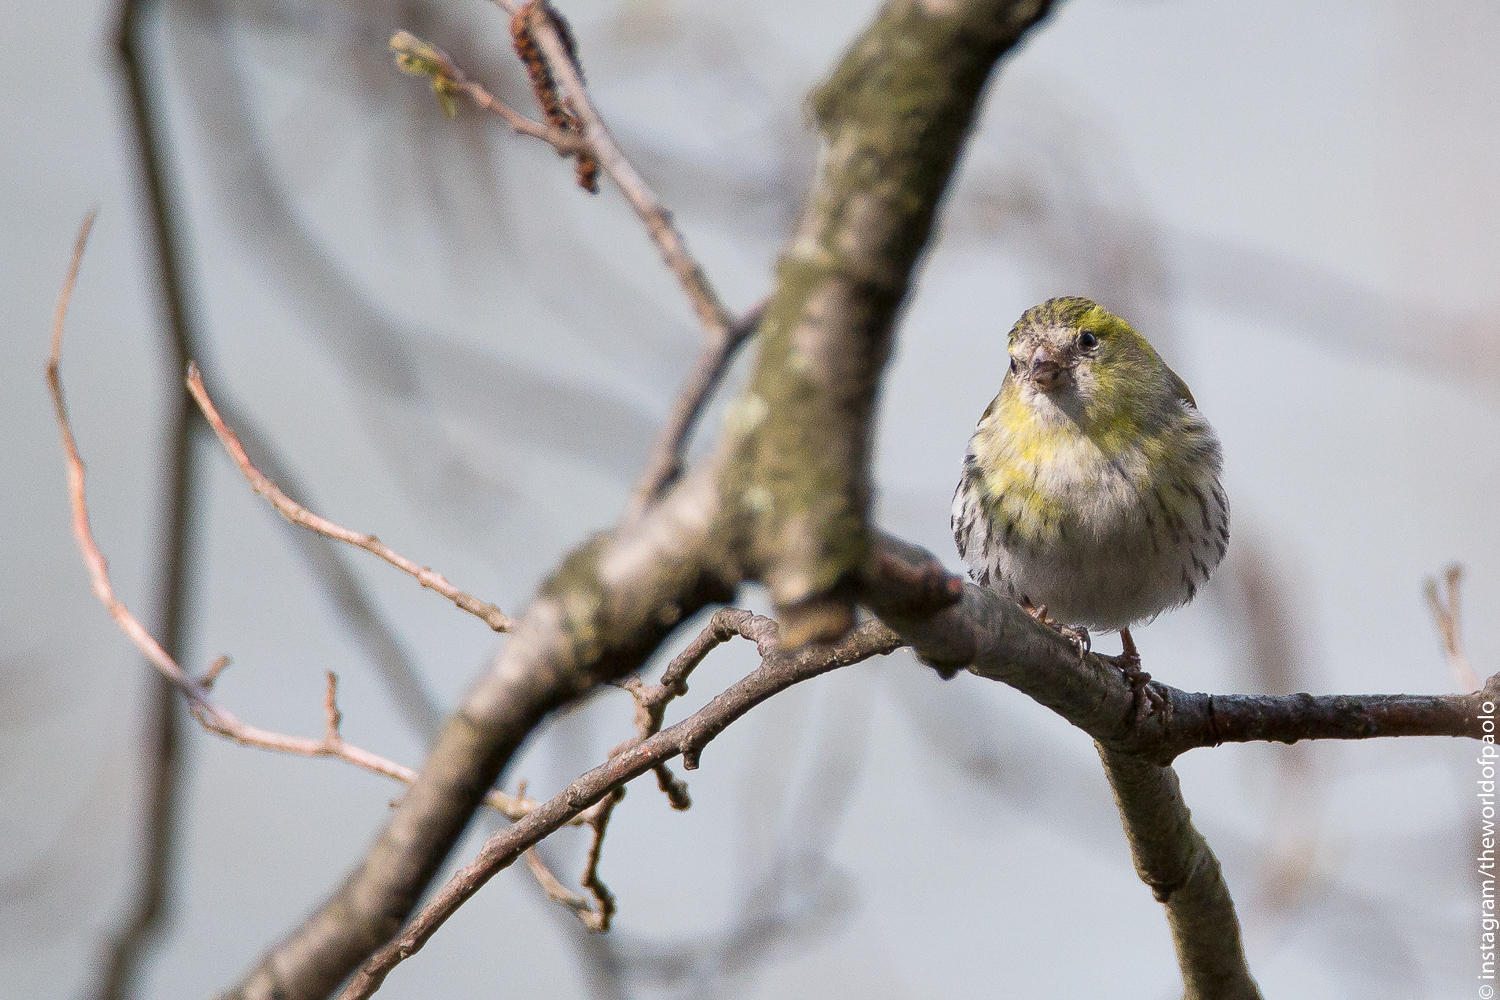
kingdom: Animalia
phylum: Chordata
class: Aves
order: Passeriformes
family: Fringillidae
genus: Spinus
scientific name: Spinus spinus
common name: Eurasian siskin
